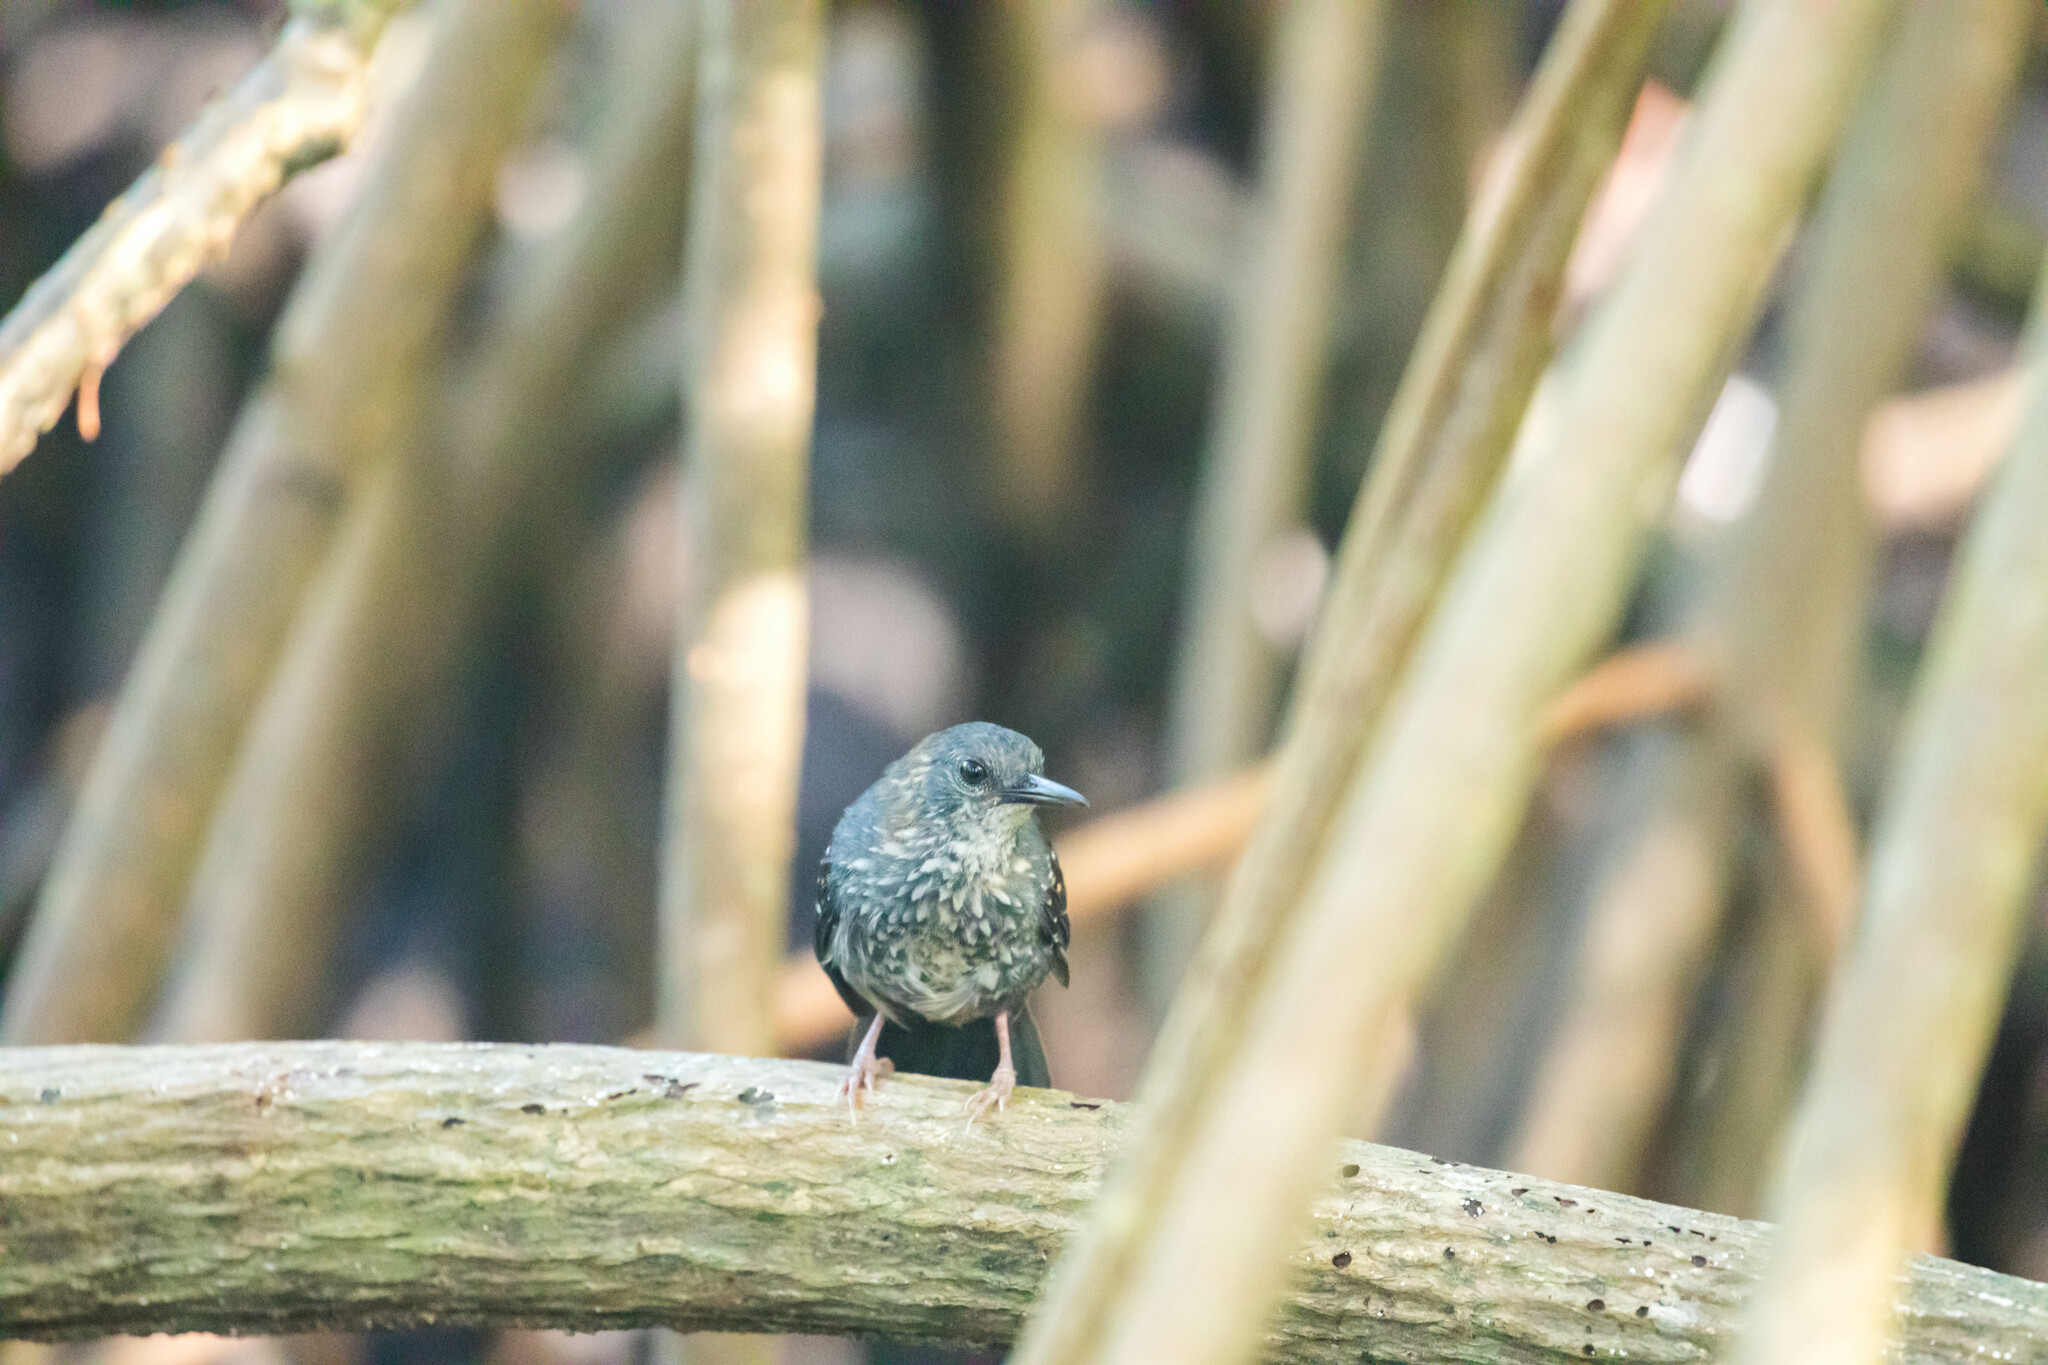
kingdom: Animalia
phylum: Chordata
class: Aves
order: Passeriformes
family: Thamnophilidae
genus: Sclateria
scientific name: Sclateria naevia
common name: Silvered antbird
